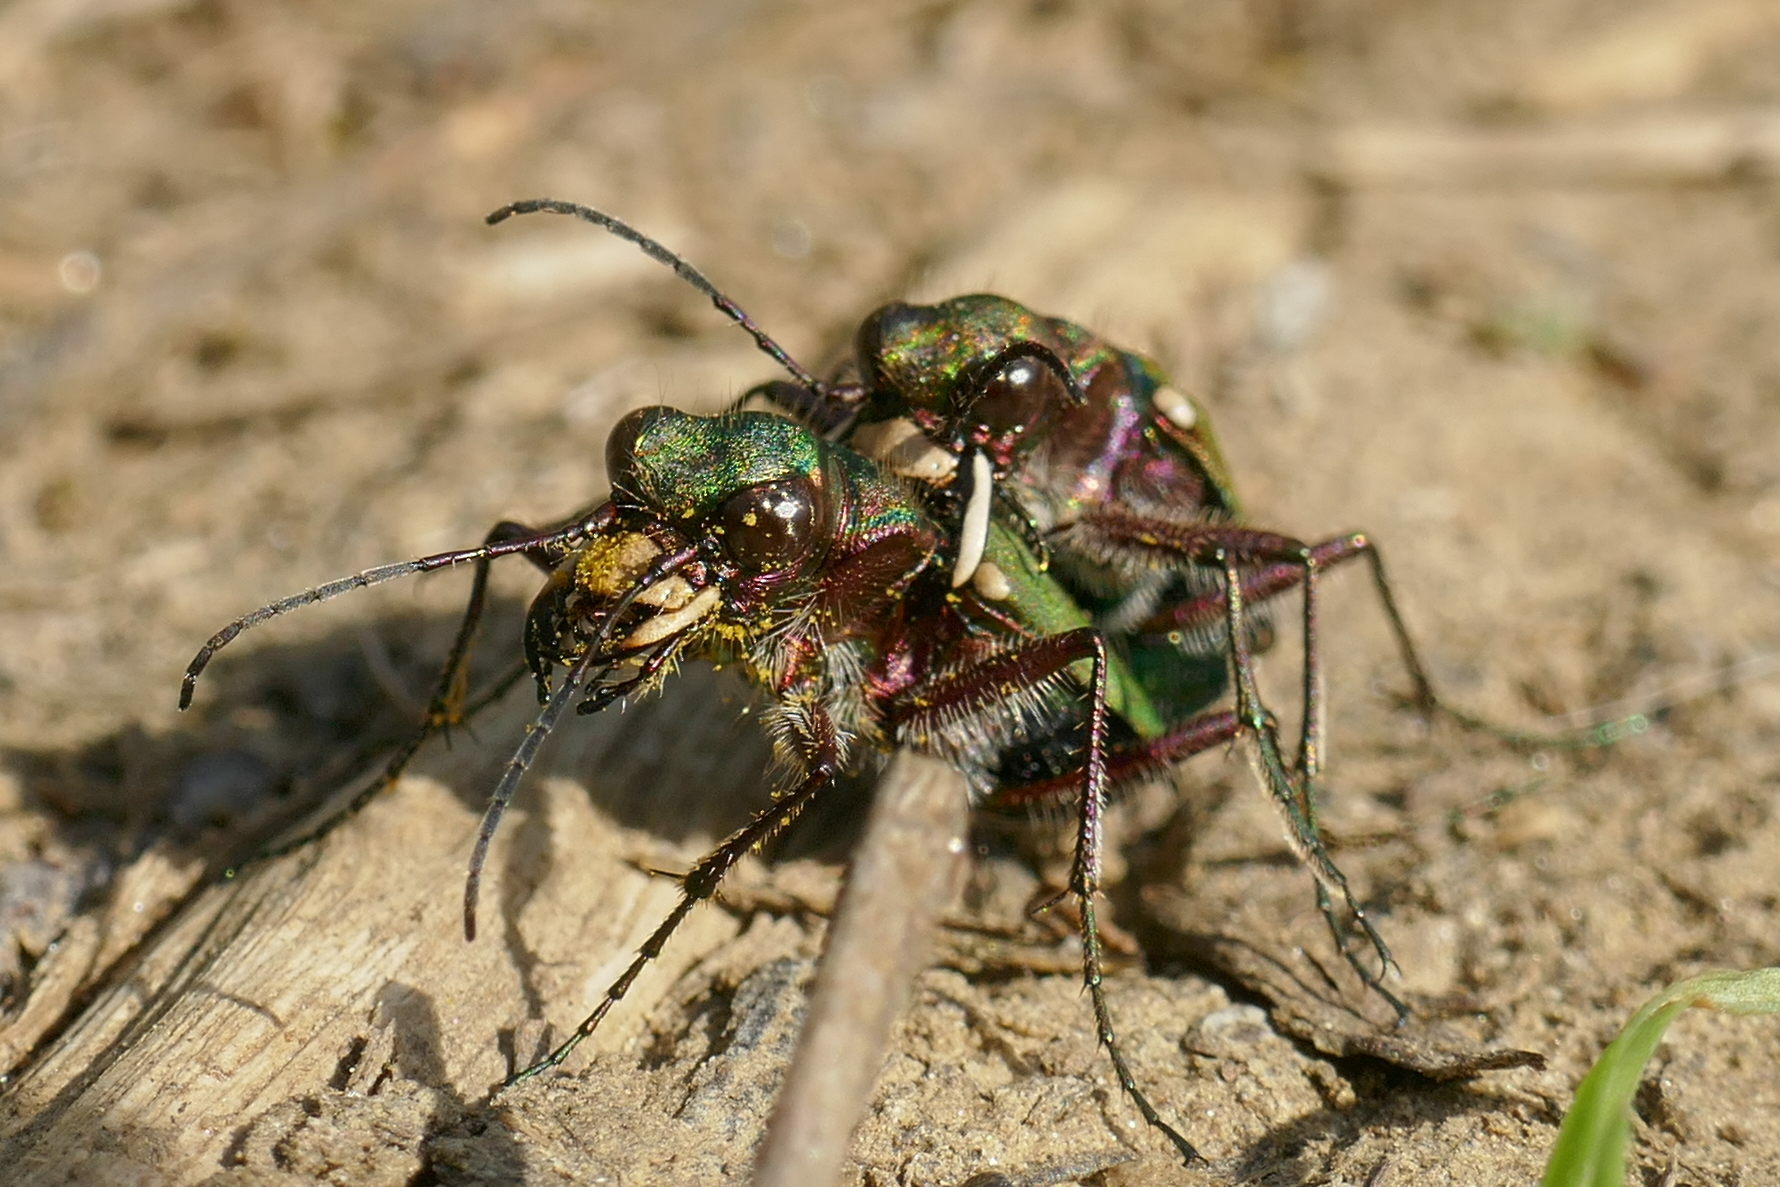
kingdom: Animalia
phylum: Arthropoda
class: Insecta
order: Coleoptera
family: Carabidae
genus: Cicindela
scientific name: Cicindela campestris
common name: Common tiger beetle
